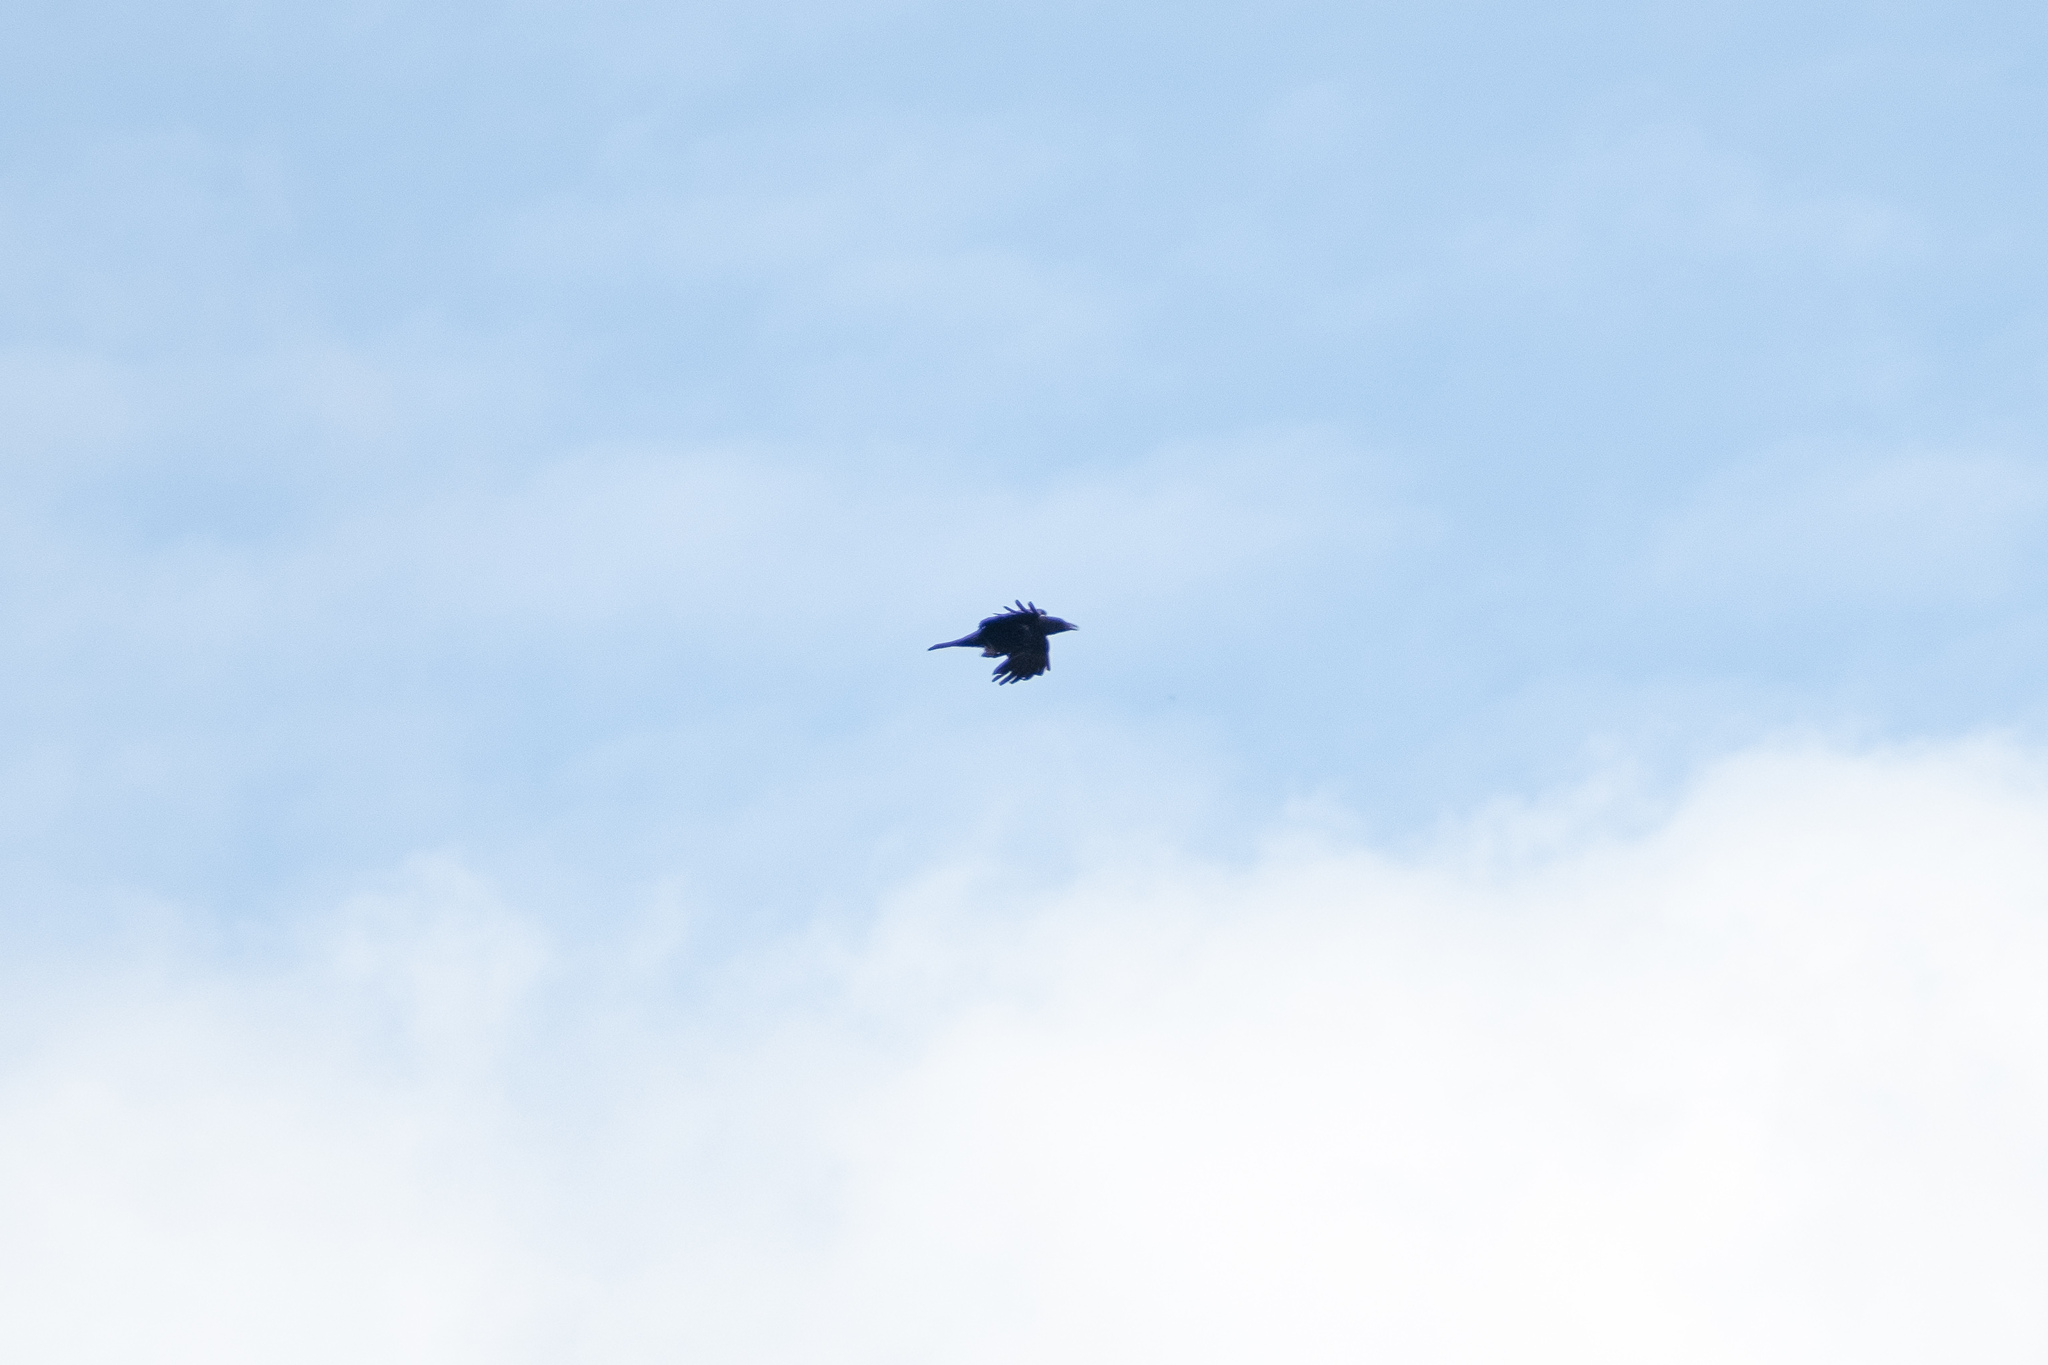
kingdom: Animalia
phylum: Chordata
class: Aves
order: Passeriformes
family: Corvidae
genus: Corvus
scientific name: Corvus corone
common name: Carrion crow
